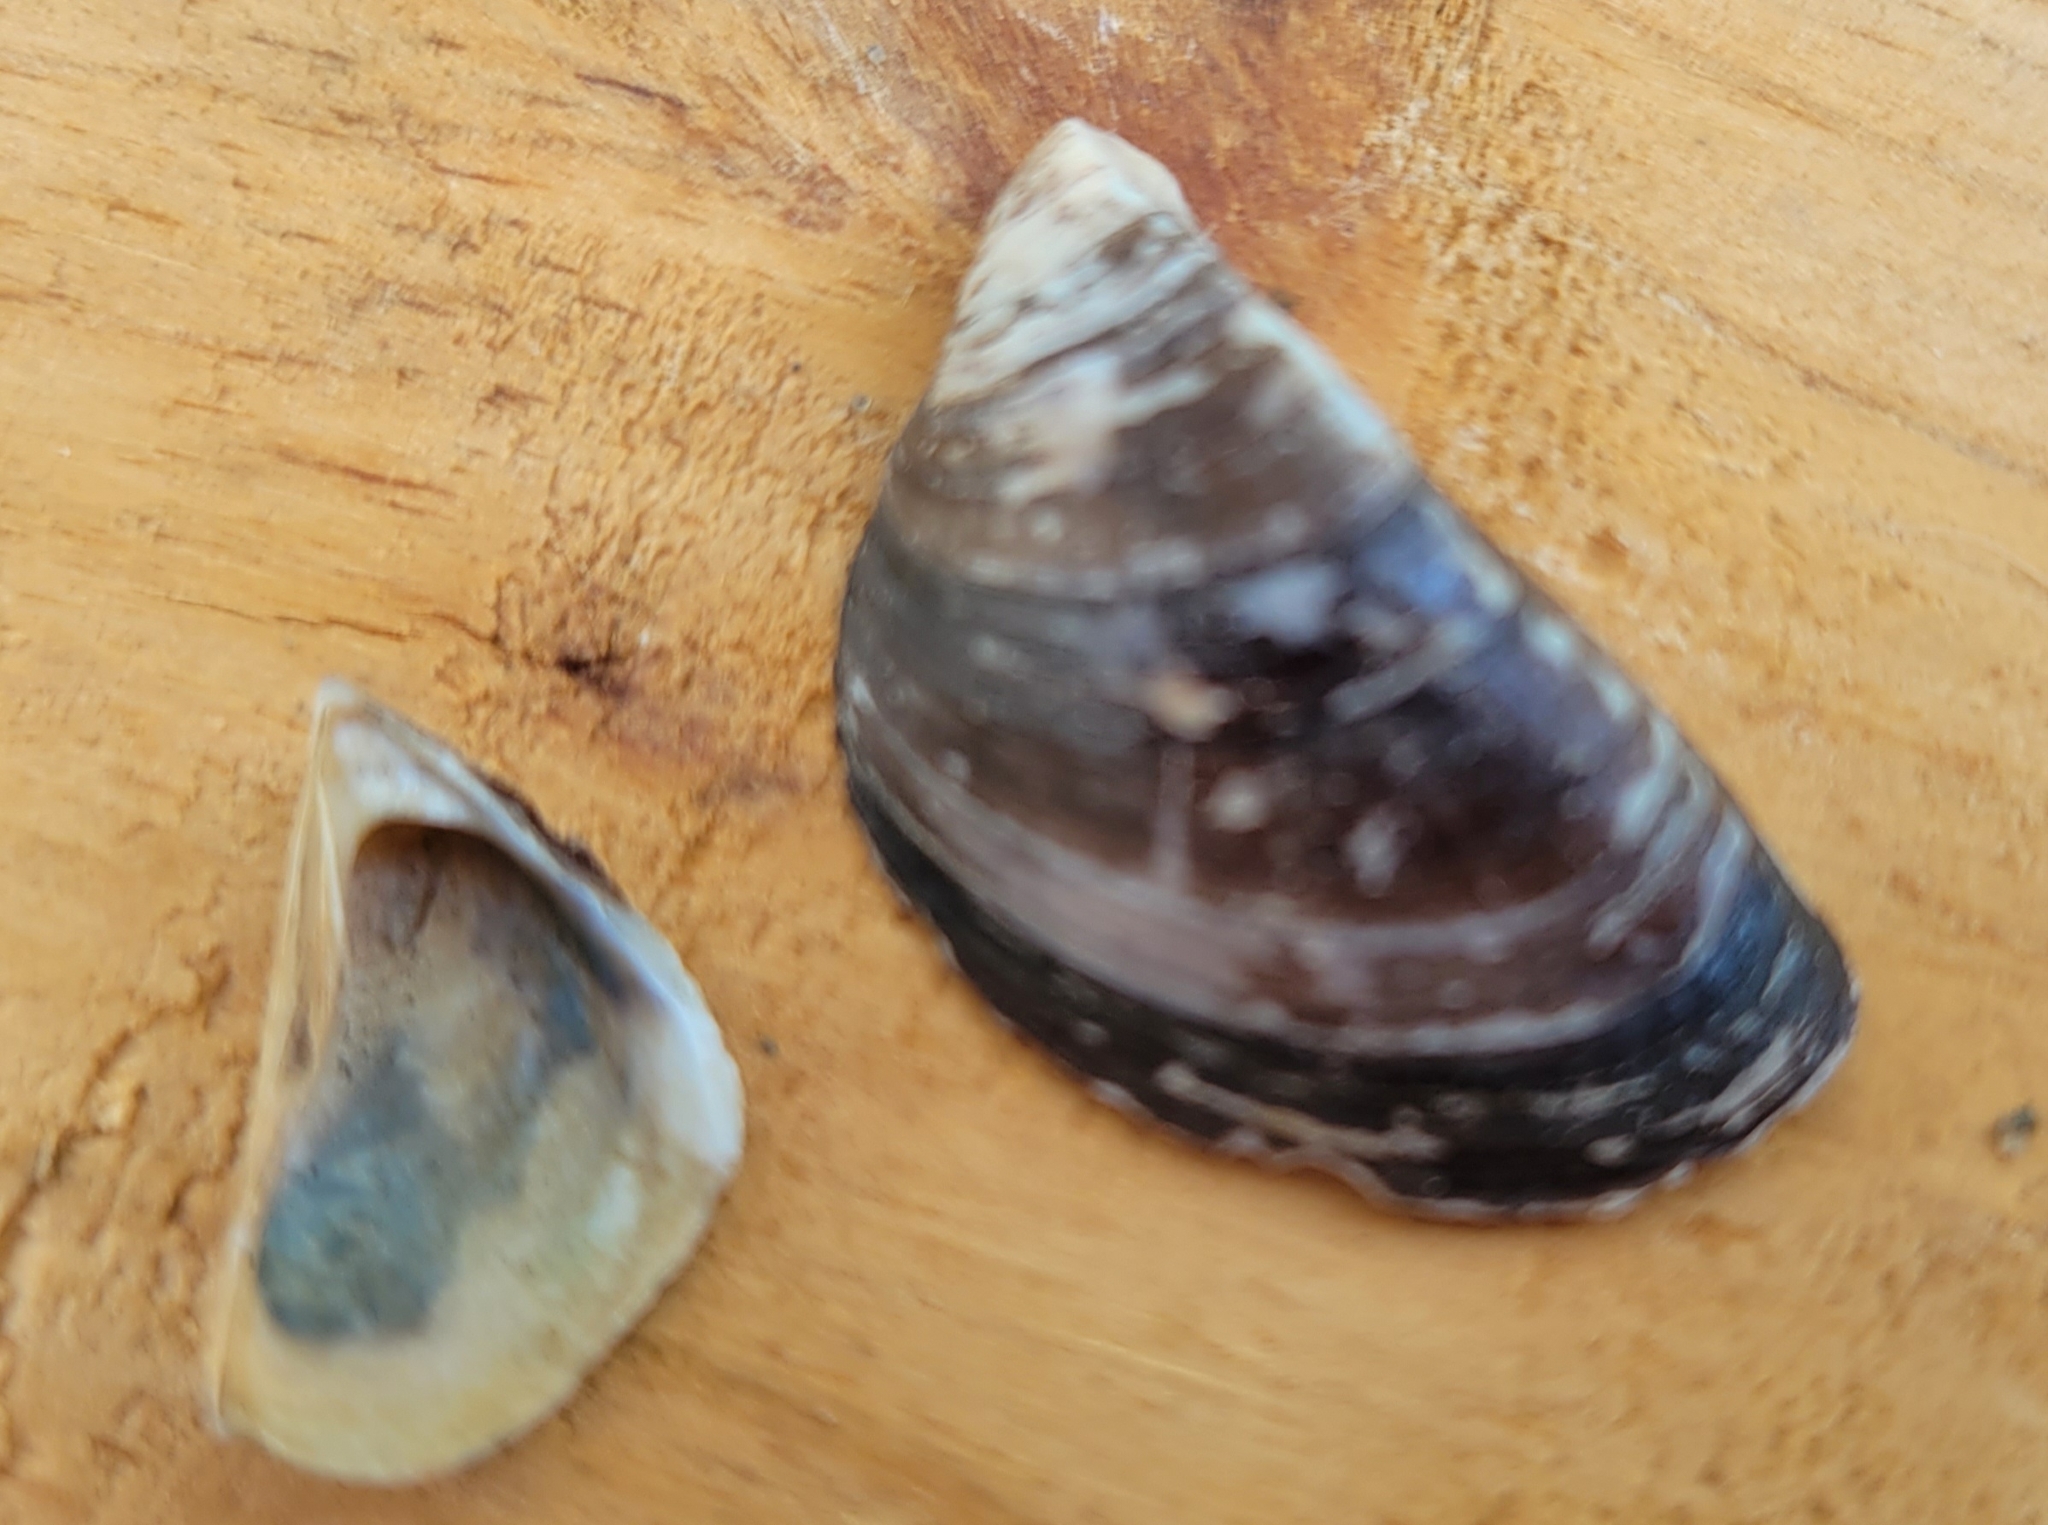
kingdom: Animalia
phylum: Mollusca
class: Bivalvia
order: Myida
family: Dreissenidae
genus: Dreissena
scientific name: Dreissena polymorpha
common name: Zebra mussel
